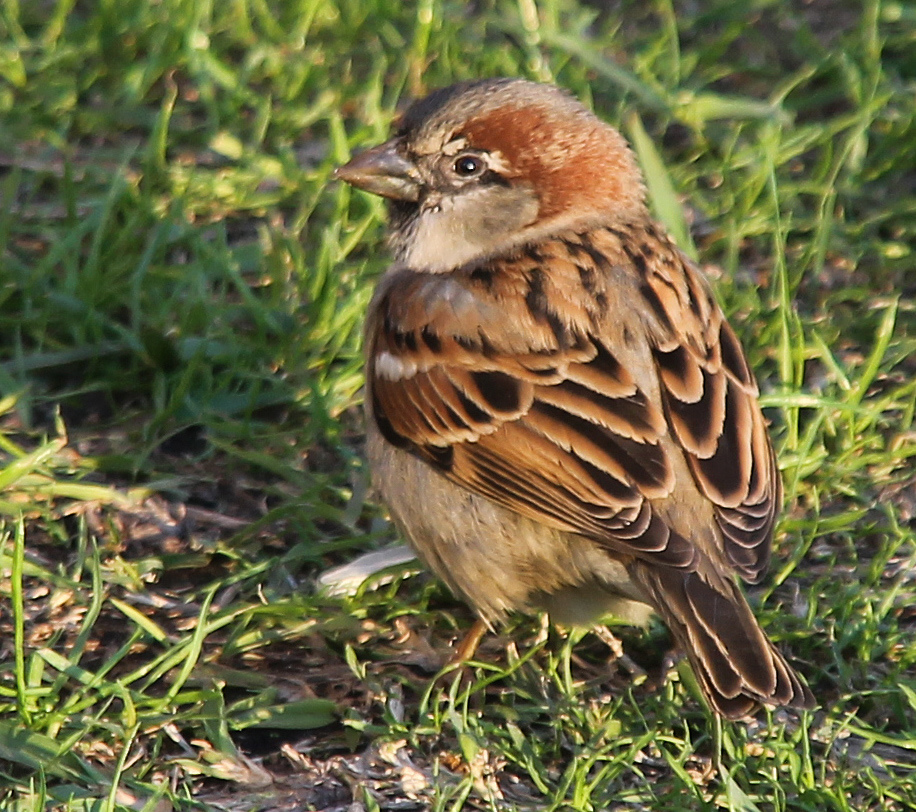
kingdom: Animalia
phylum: Chordata
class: Aves
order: Passeriformes
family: Passeridae
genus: Passer
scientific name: Passer domesticus
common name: House sparrow
